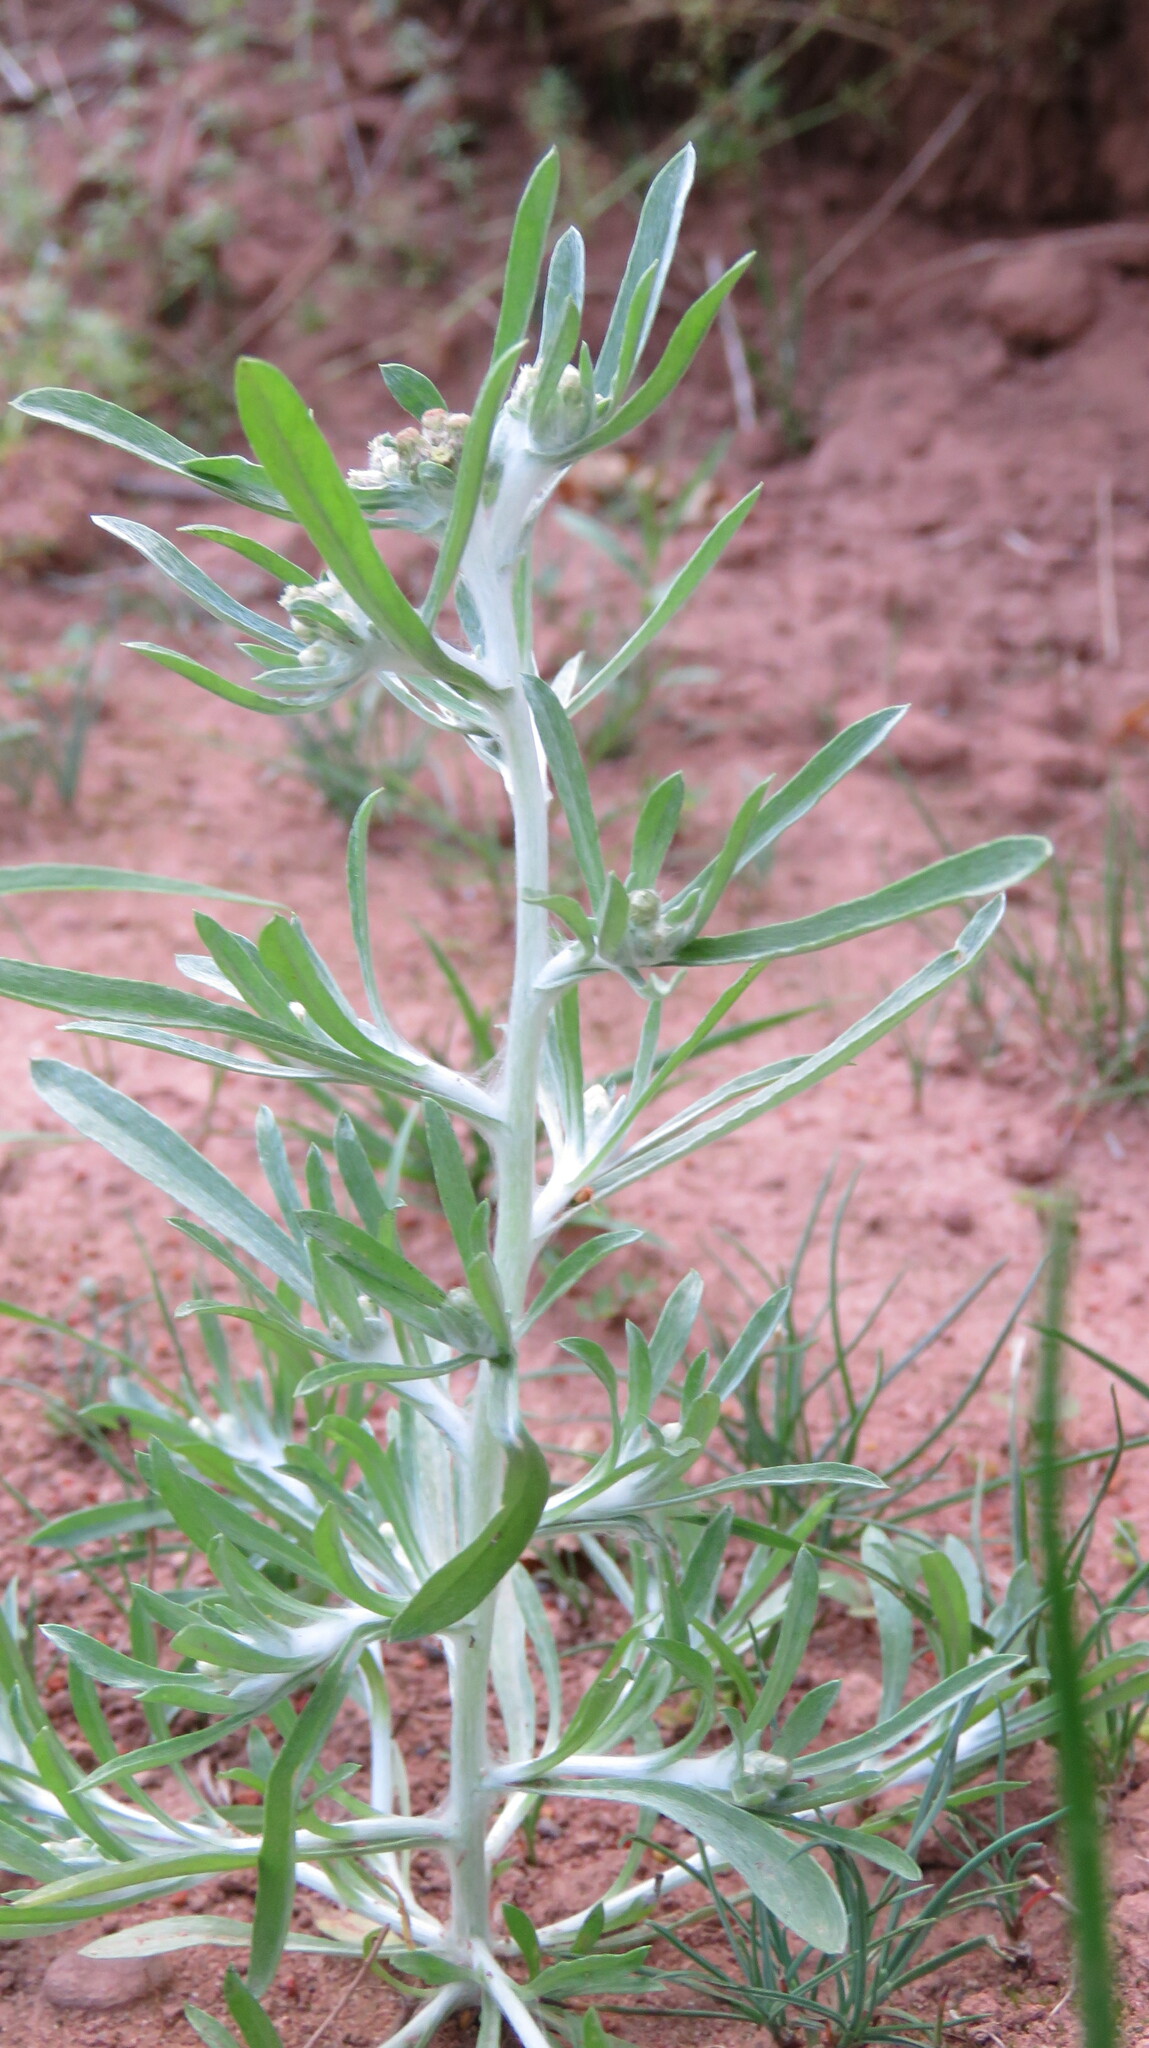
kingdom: Plantae
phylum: Tracheophyta
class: Magnoliopsida
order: Asterales
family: Asteraceae
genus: Gnaphalium
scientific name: Gnaphalium uliginosum
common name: Marsh cudweed
